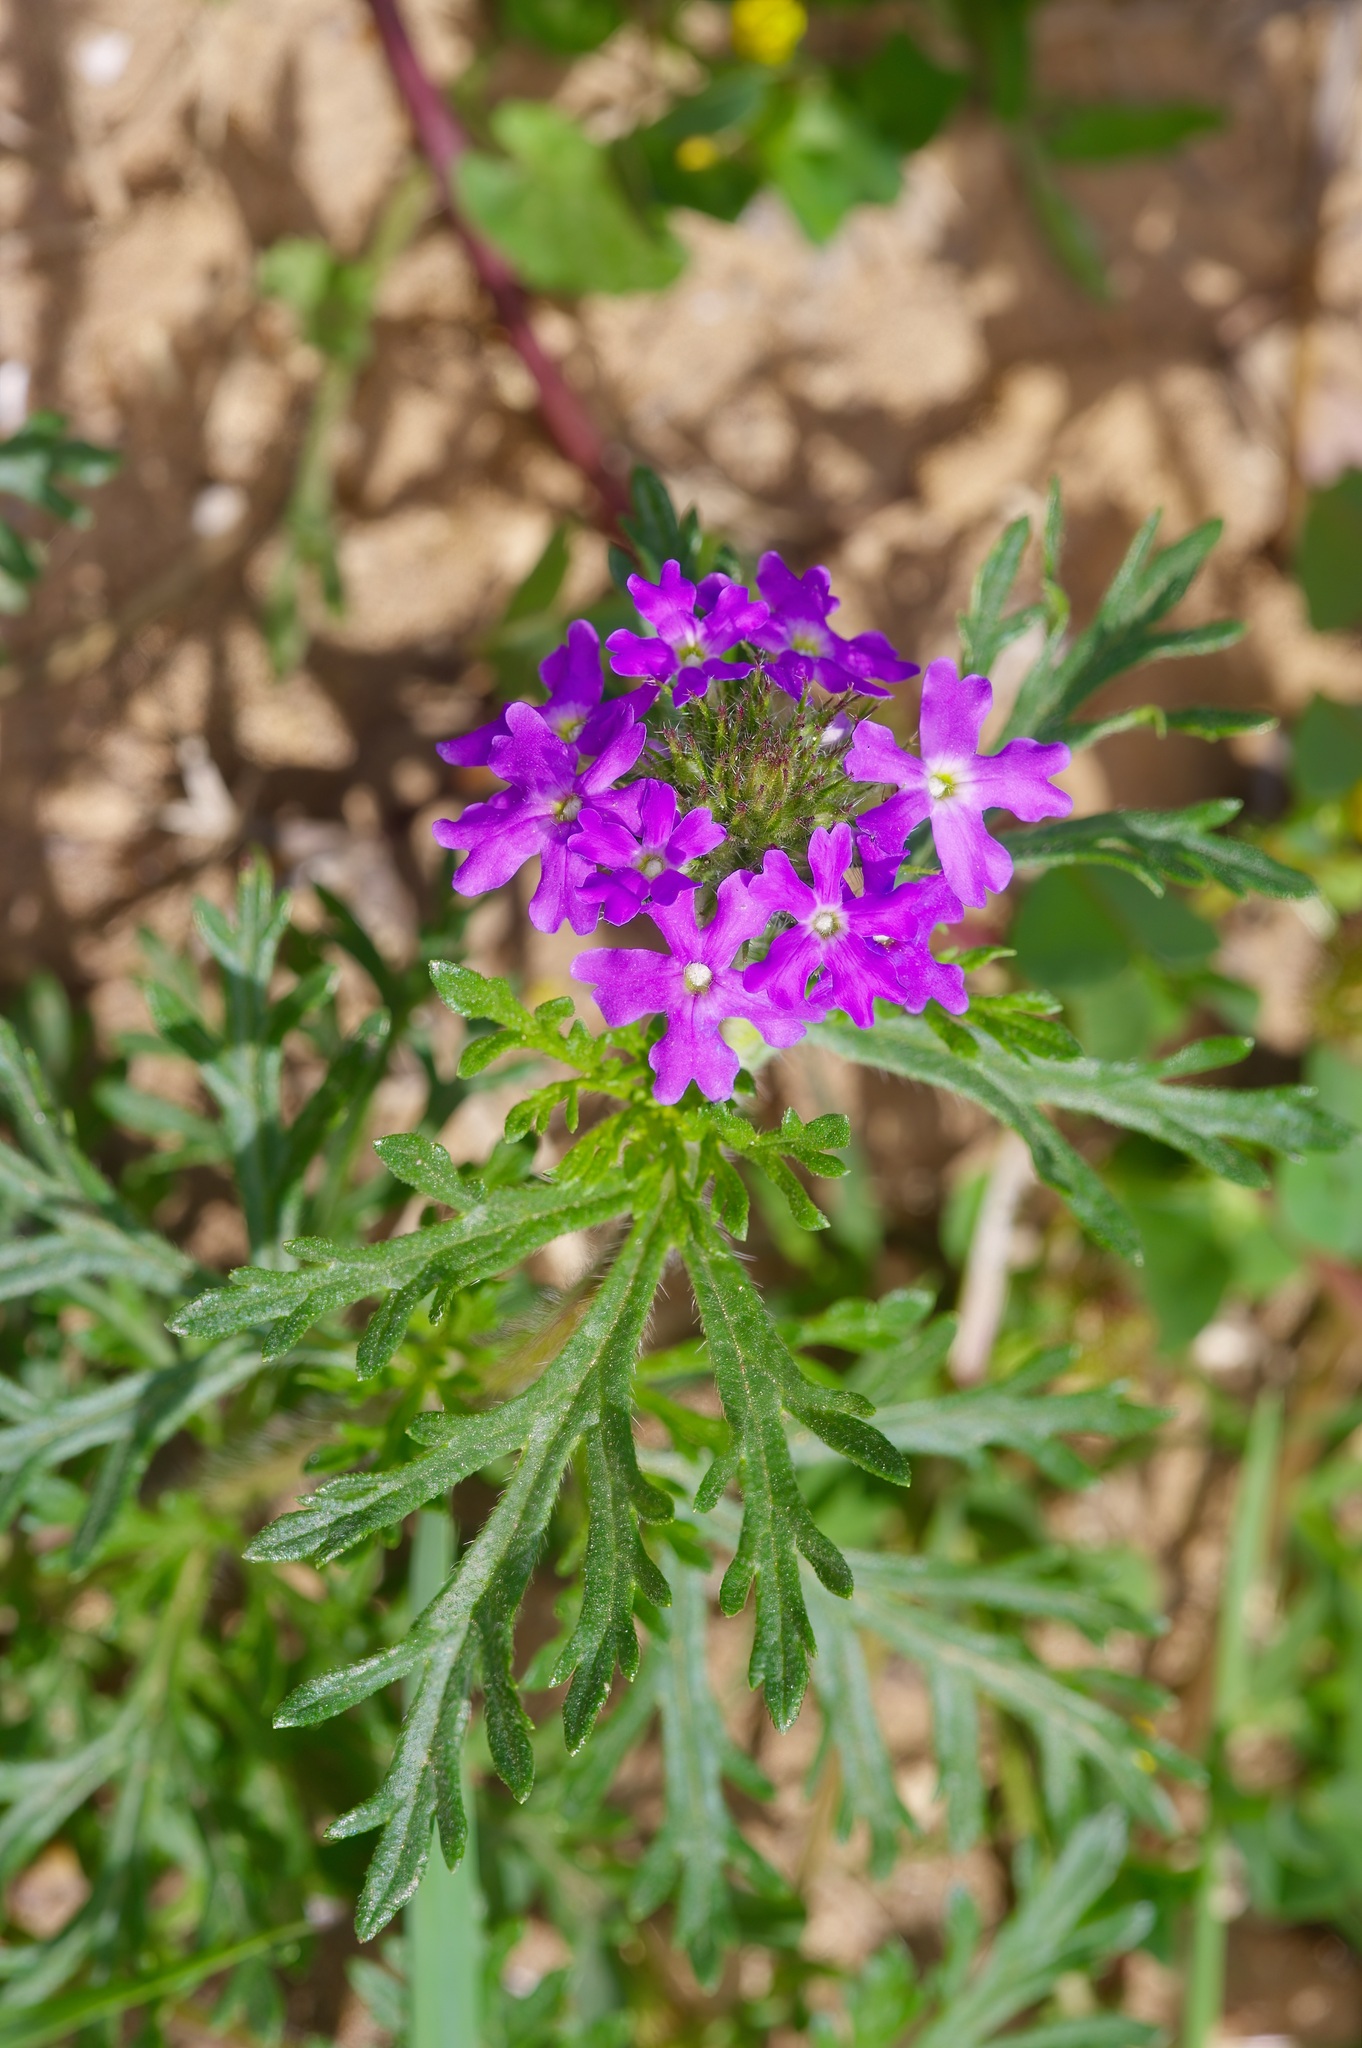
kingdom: Plantae
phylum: Tracheophyta
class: Magnoliopsida
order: Lamiales
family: Verbenaceae
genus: Verbena
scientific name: Verbena bipinnatifida
